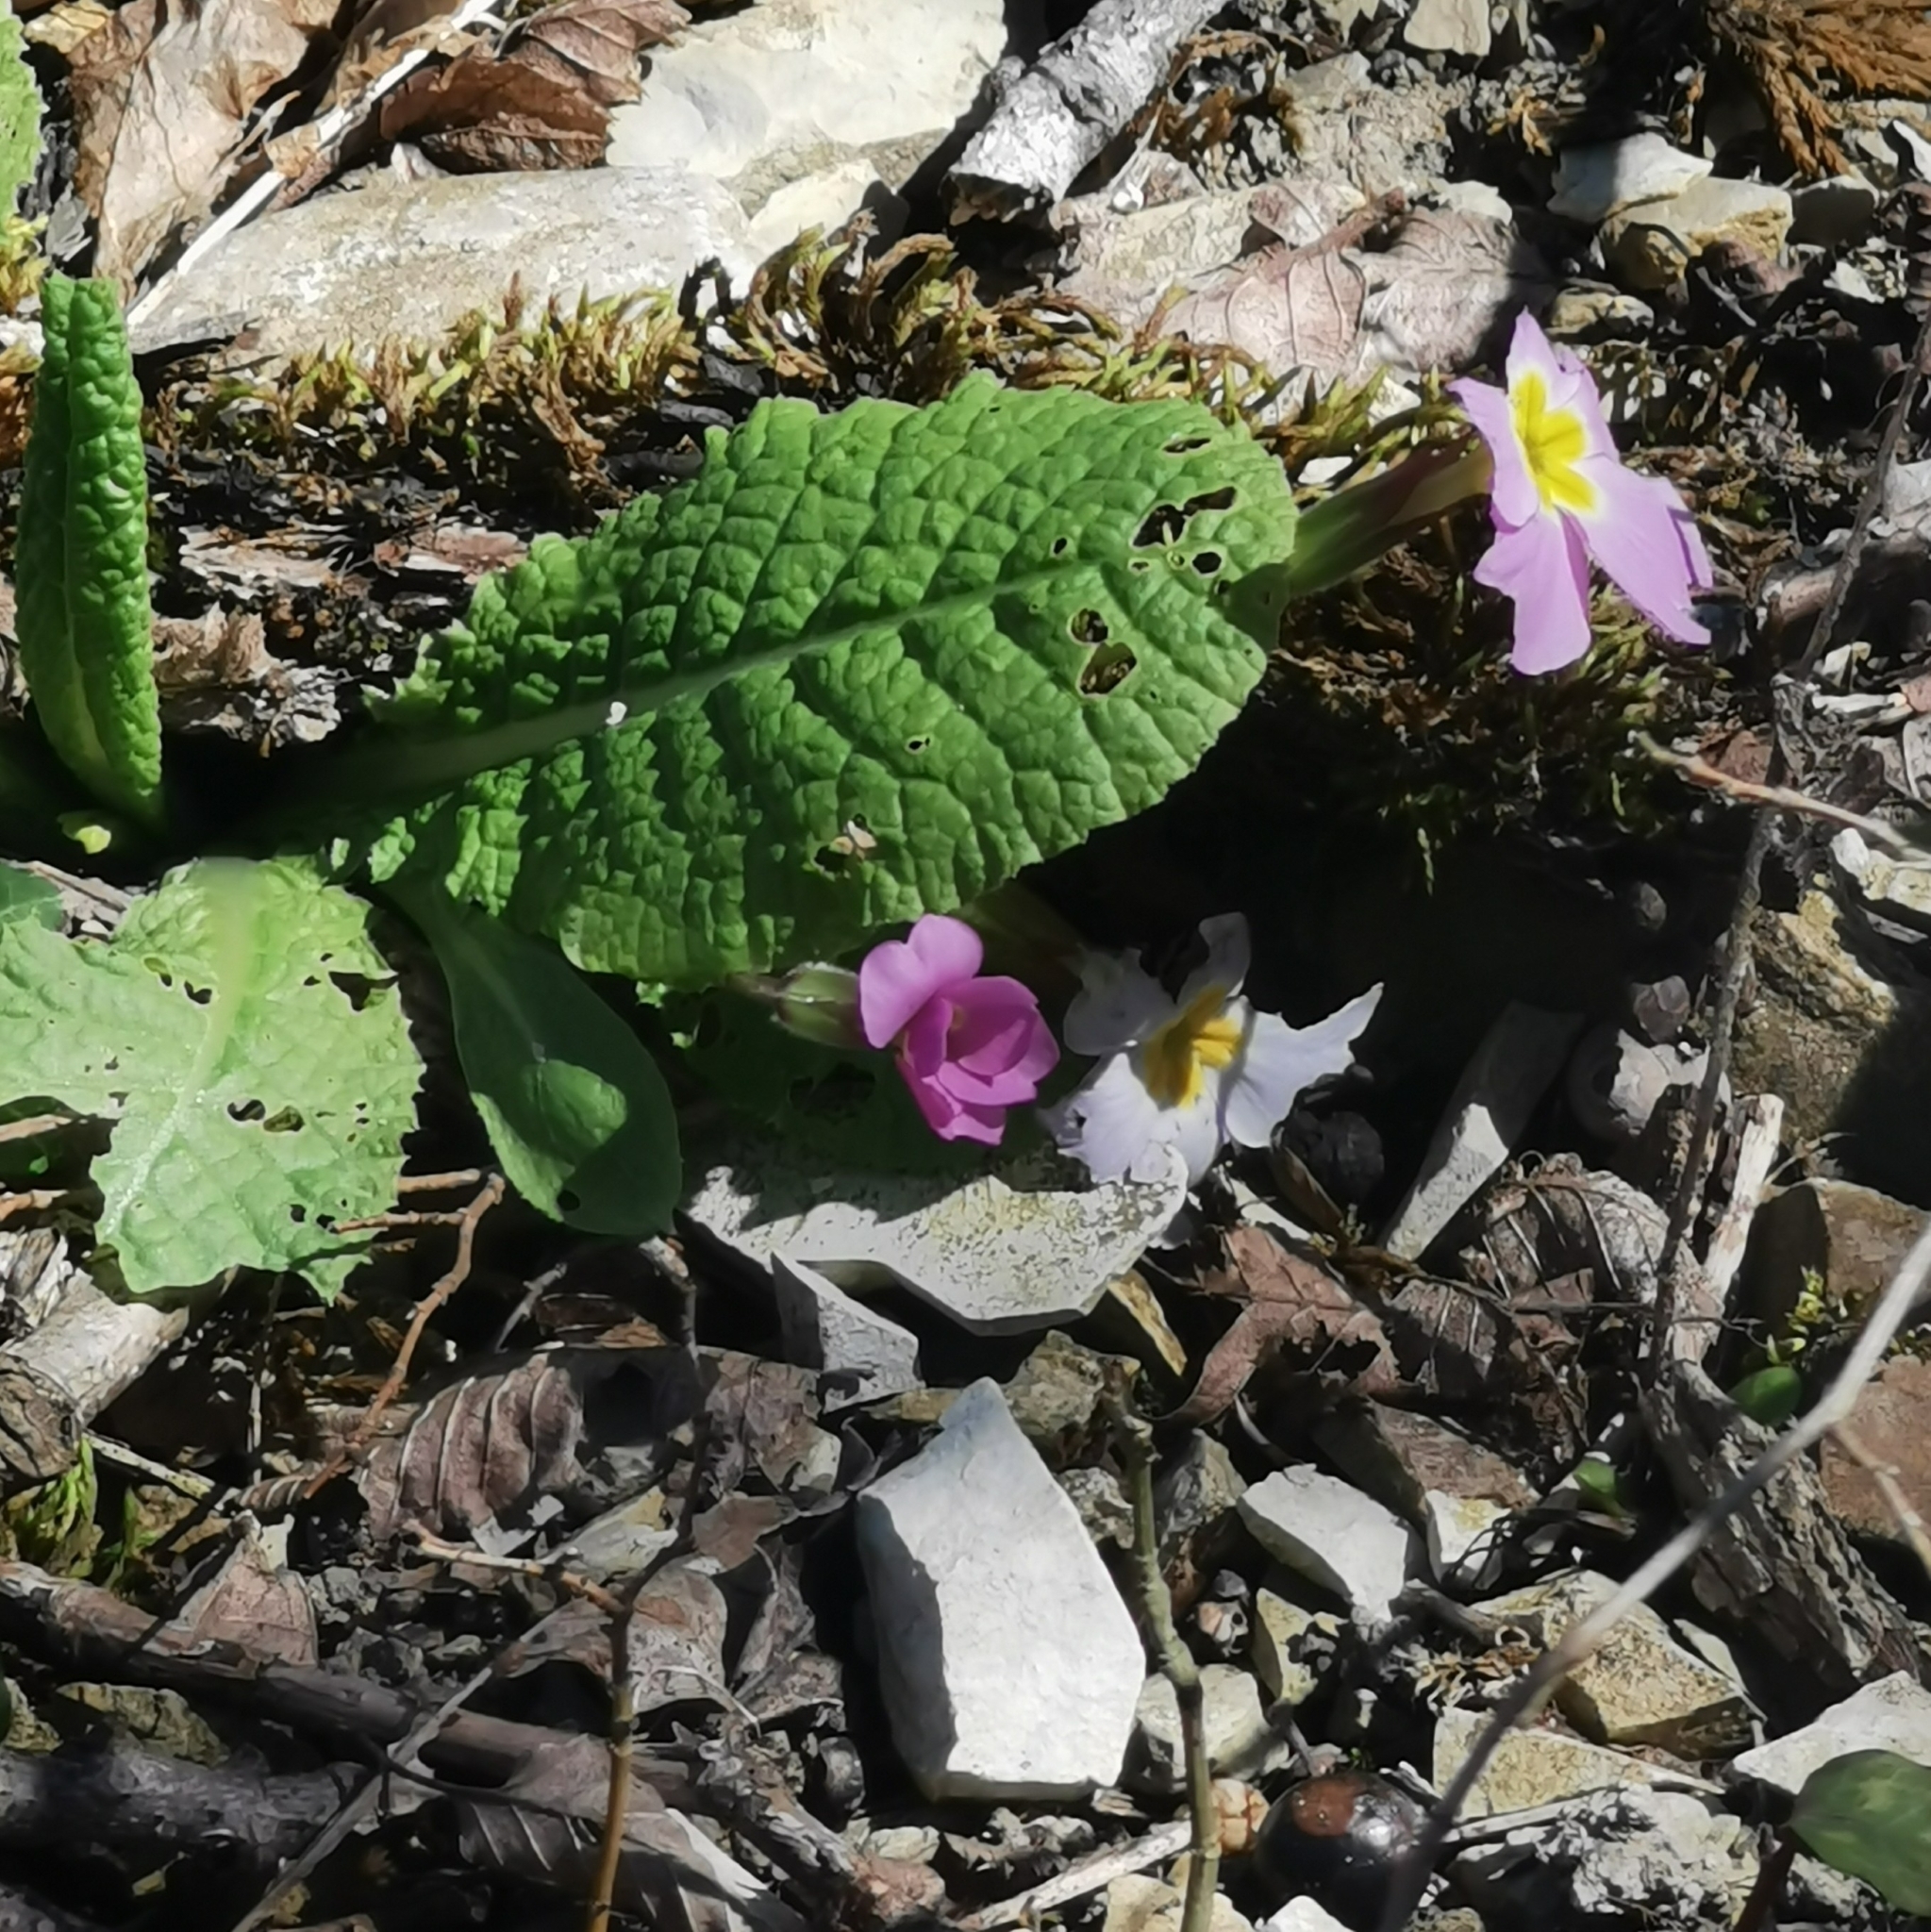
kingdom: Plantae
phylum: Tracheophyta
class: Magnoliopsida
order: Ericales
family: Primulaceae
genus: Primula
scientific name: Primula vulgaris
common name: Primrose
